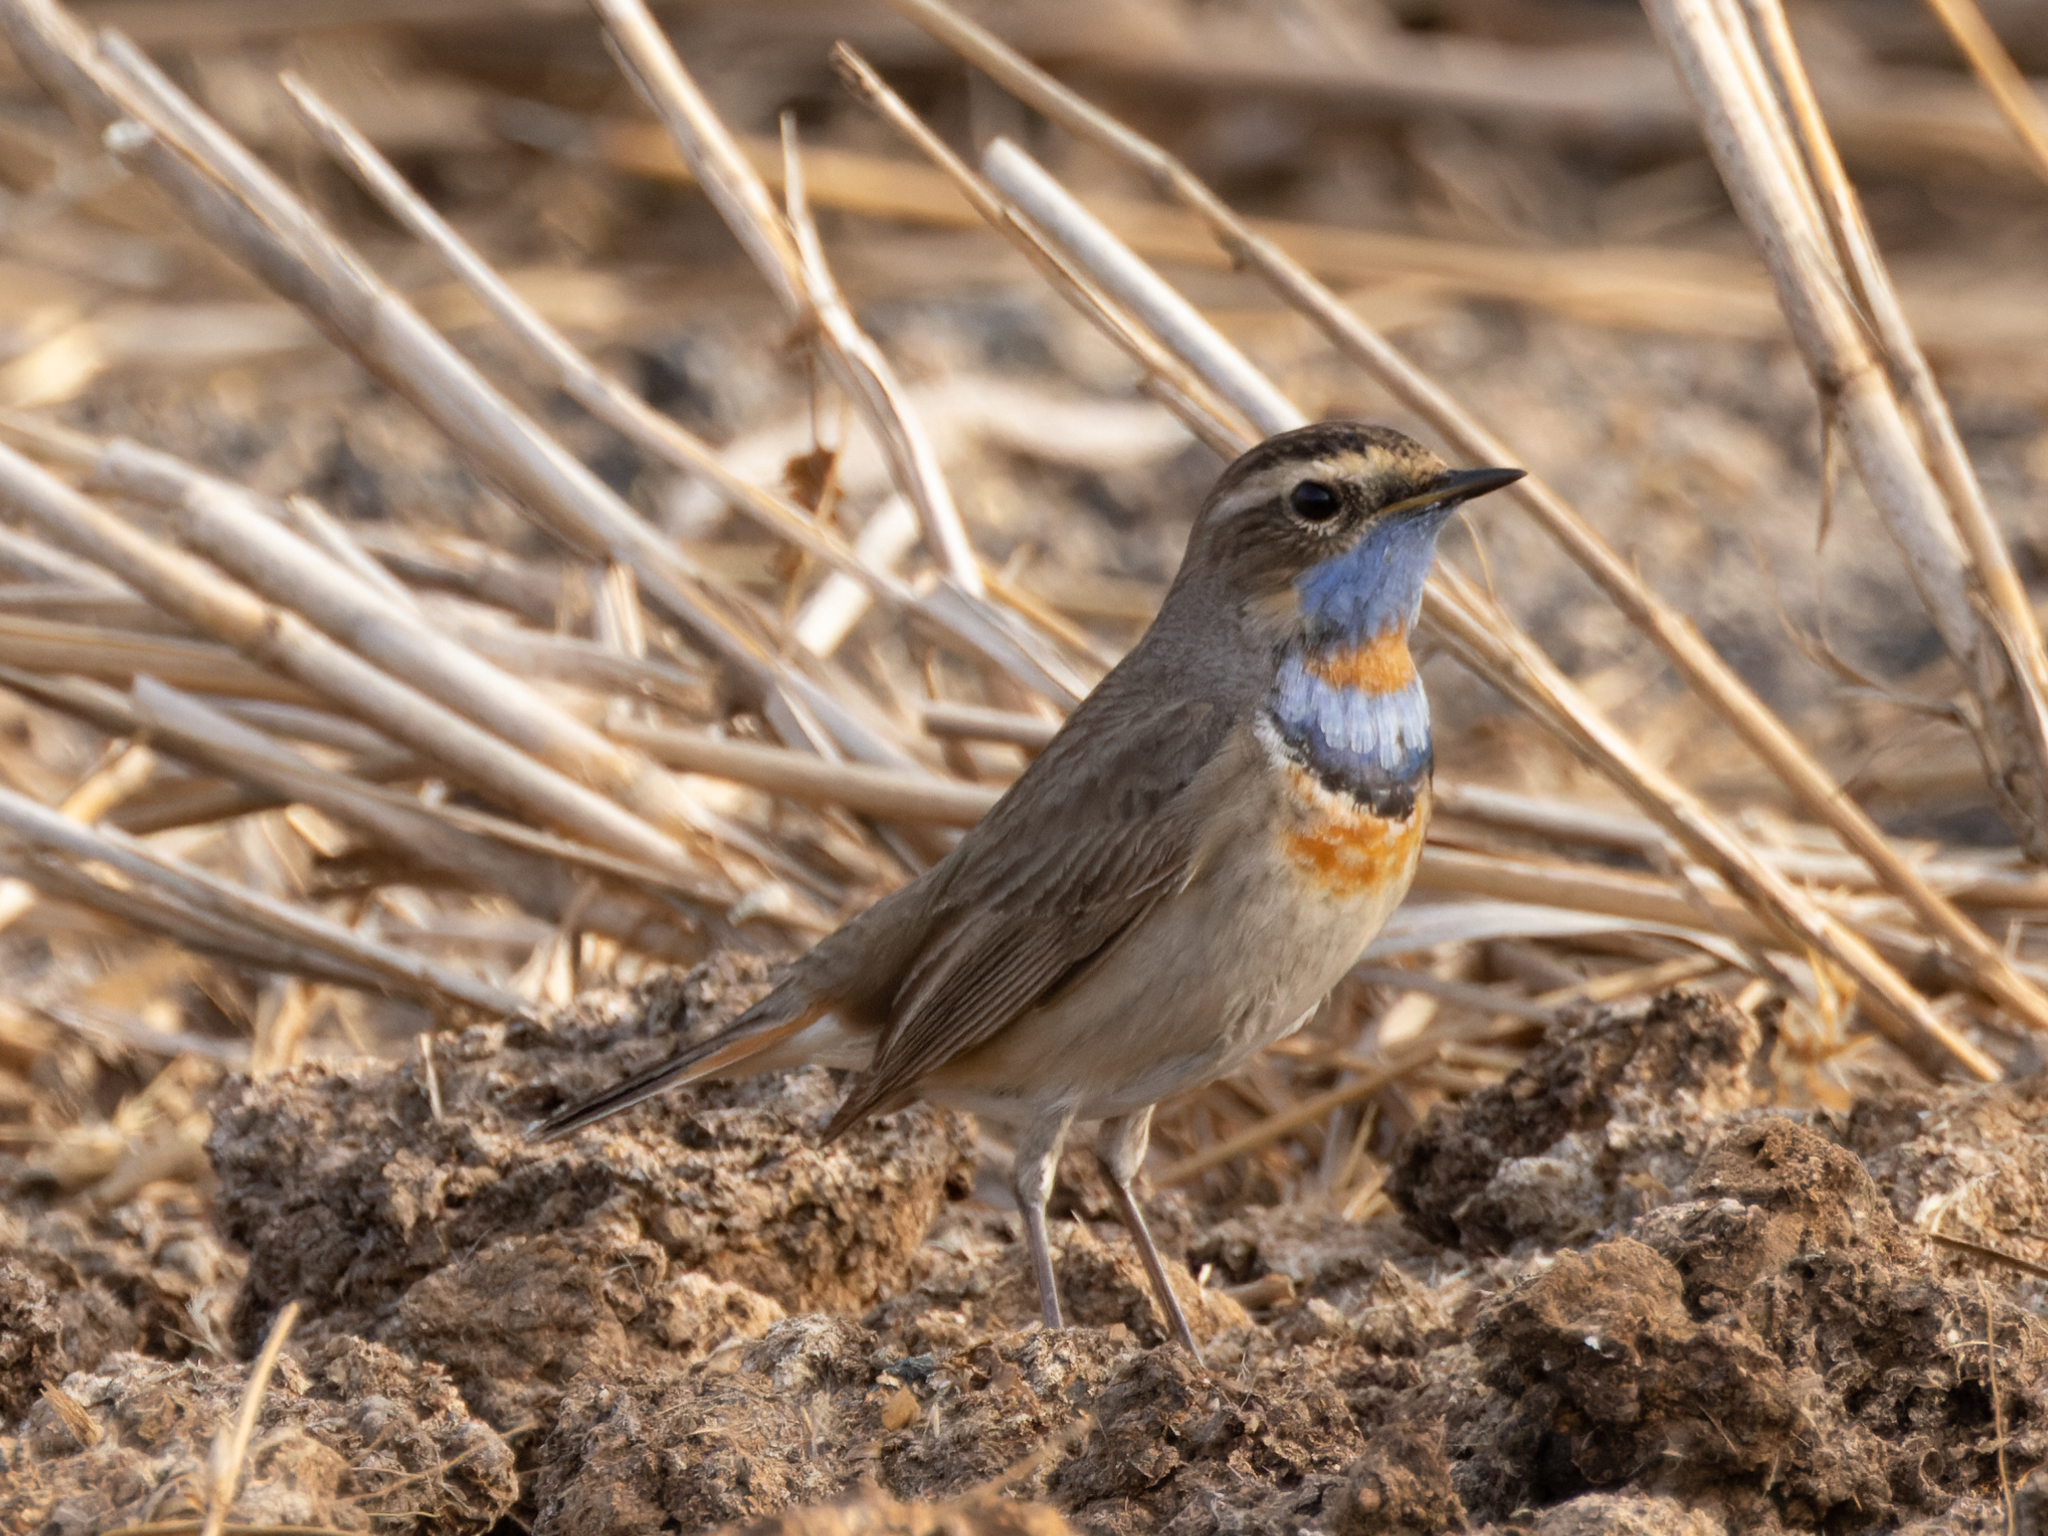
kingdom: Animalia
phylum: Chordata
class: Aves
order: Passeriformes
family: Muscicapidae
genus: Luscinia
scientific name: Luscinia svecica
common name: Bluethroat
